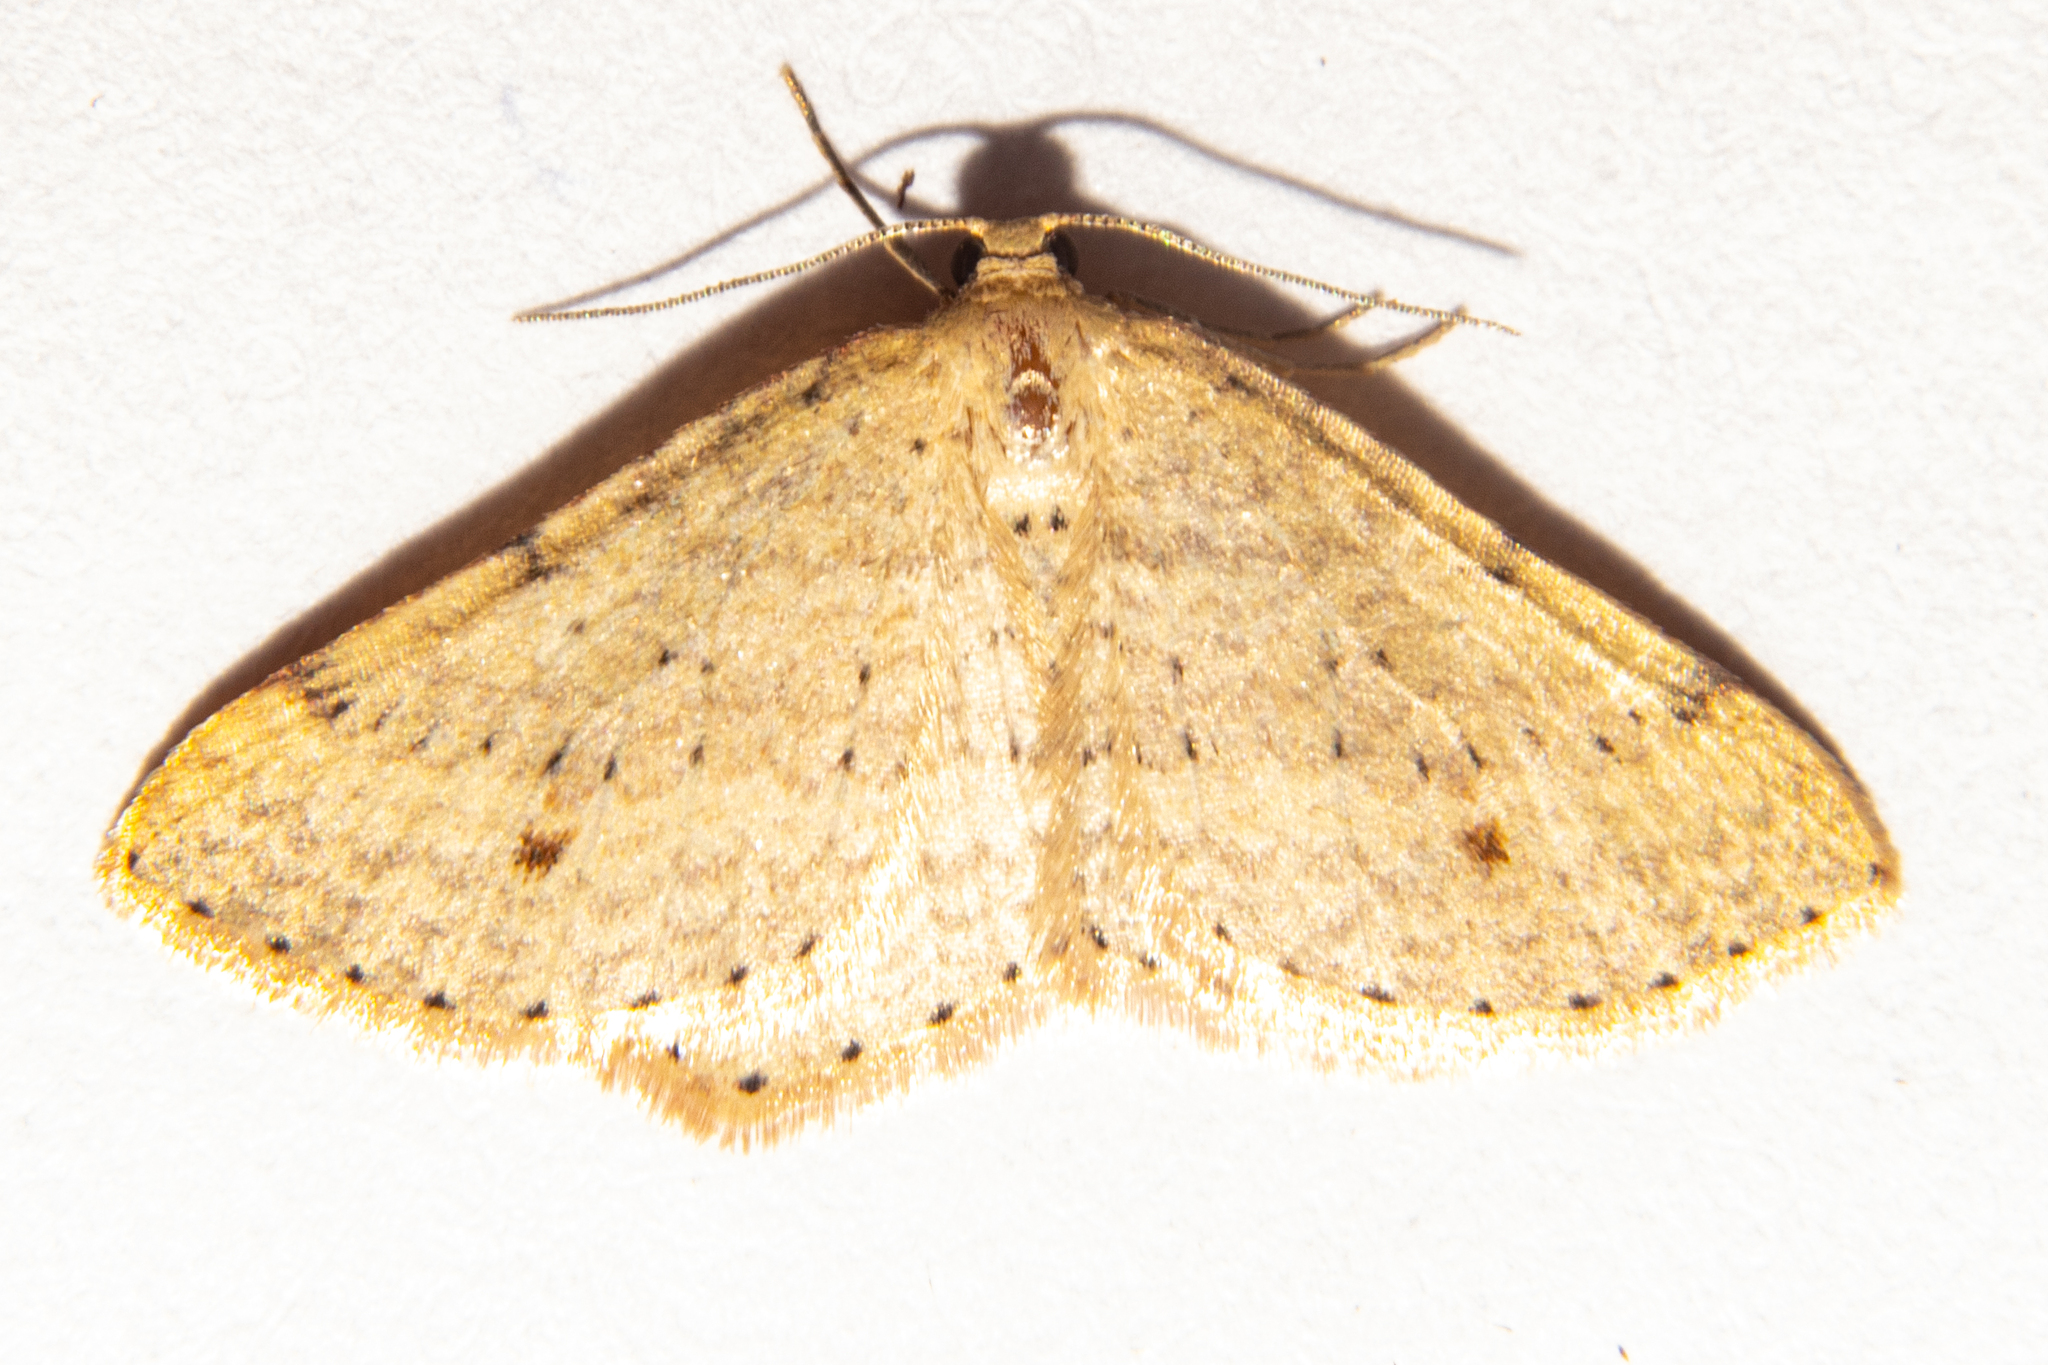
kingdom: Animalia
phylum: Arthropoda
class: Insecta
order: Lepidoptera
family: Geometridae
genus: Epicyme
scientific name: Epicyme rubropunctaria
